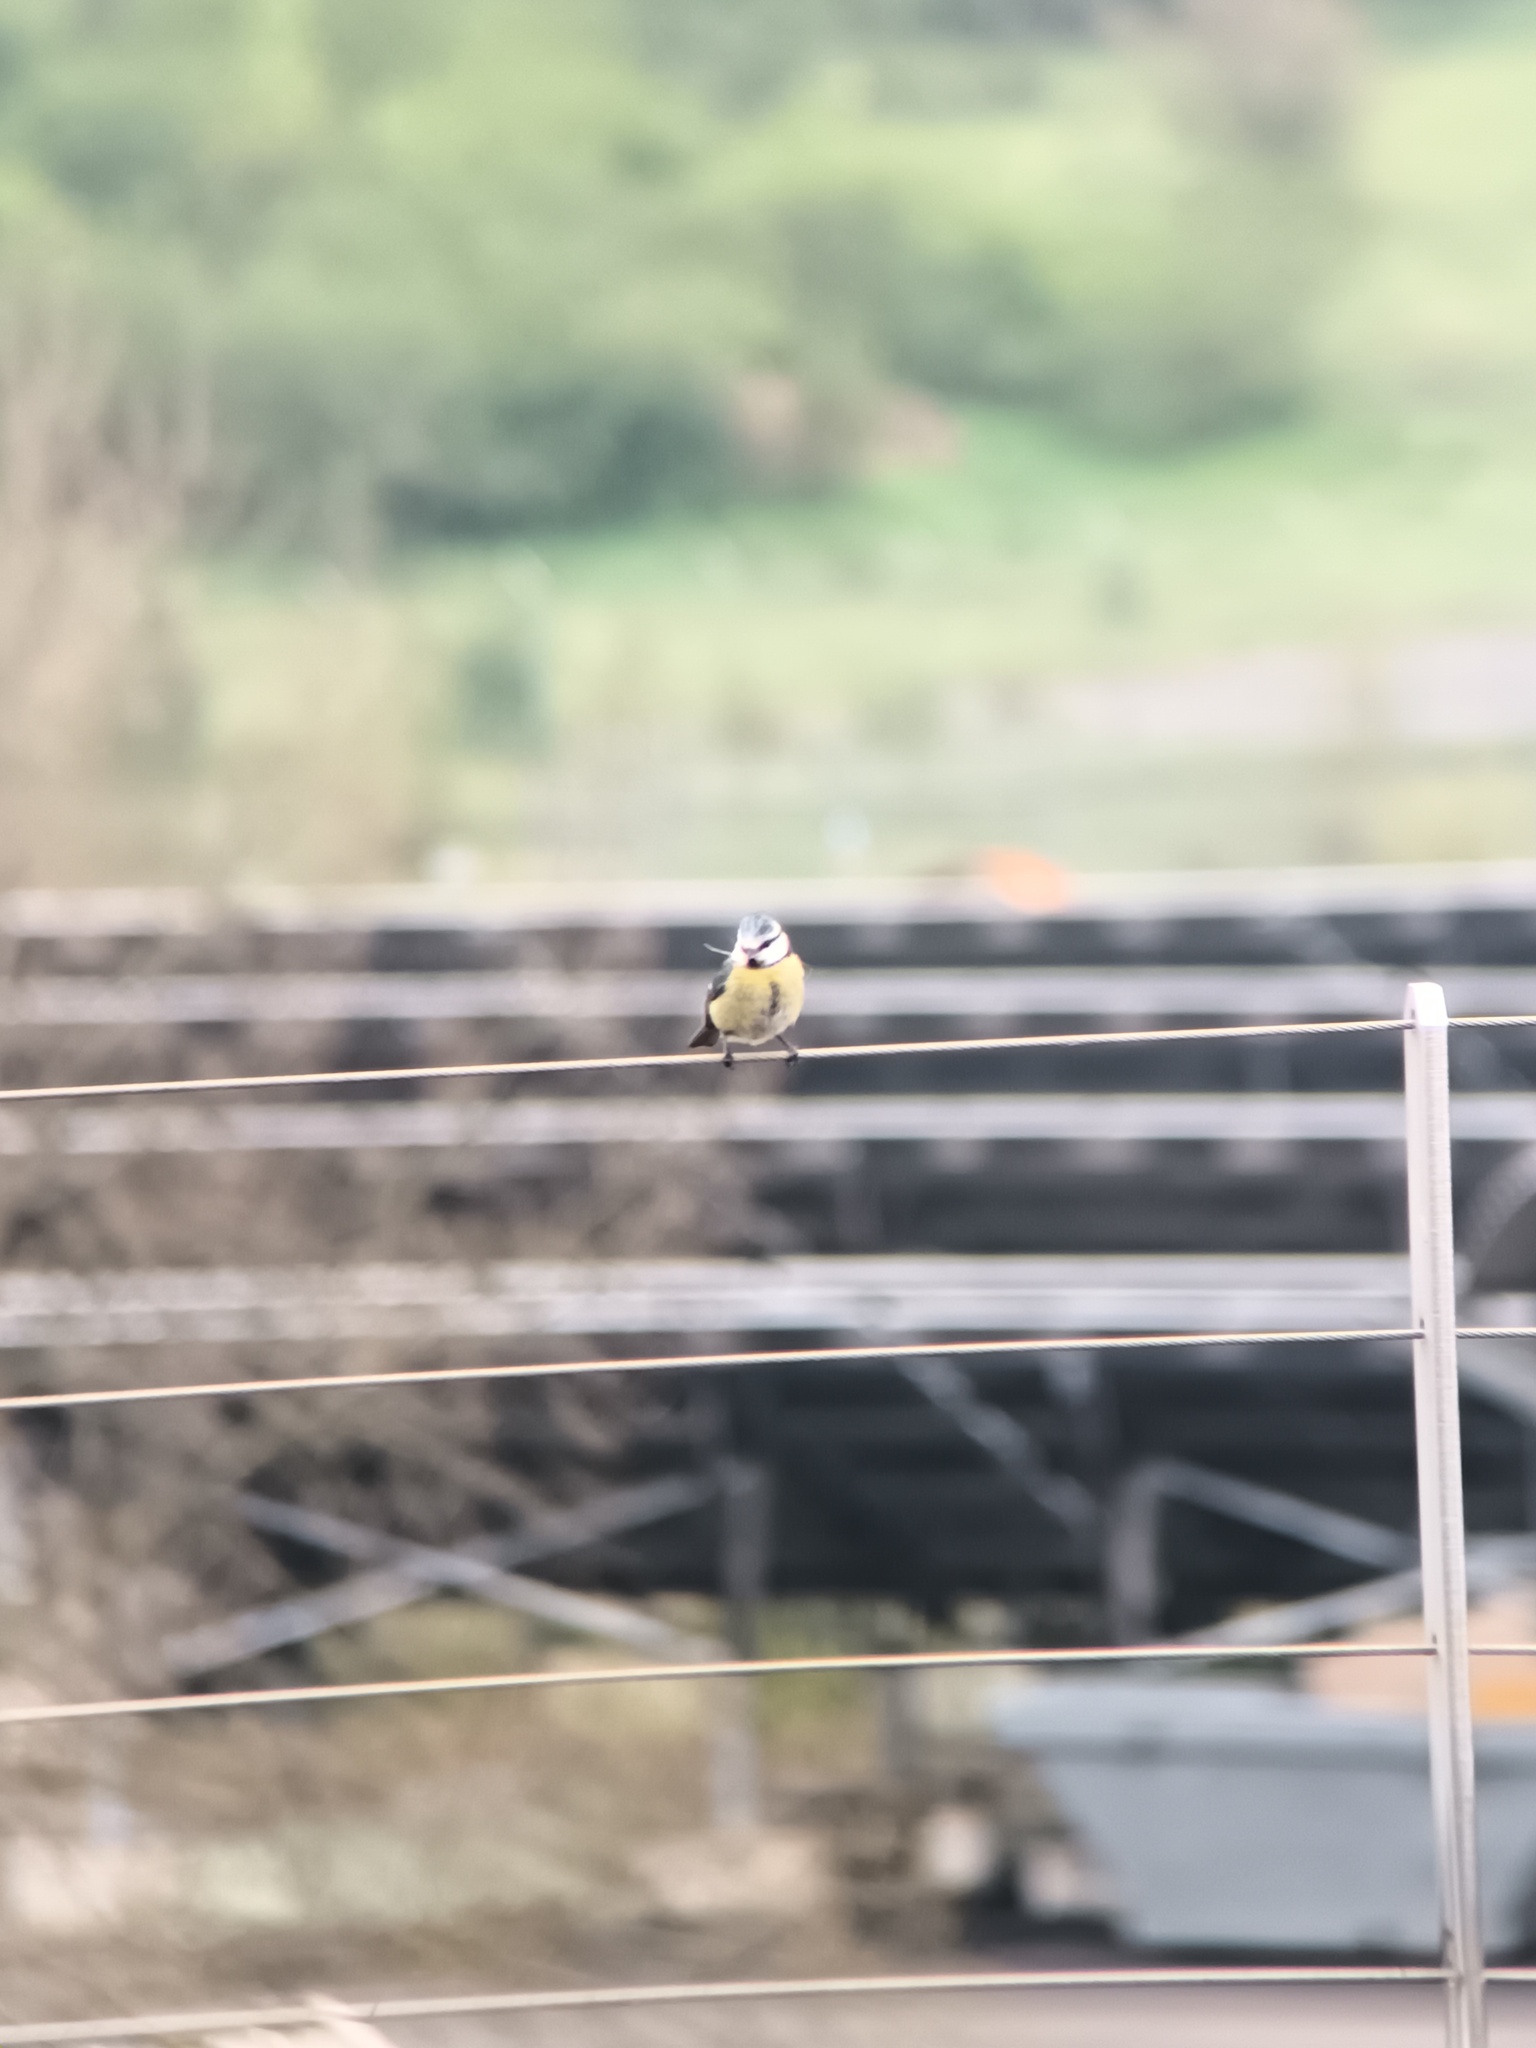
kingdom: Animalia
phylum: Chordata
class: Aves
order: Passeriformes
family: Paridae
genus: Cyanistes
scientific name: Cyanistes caeruleus
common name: Eurasian blue tit
